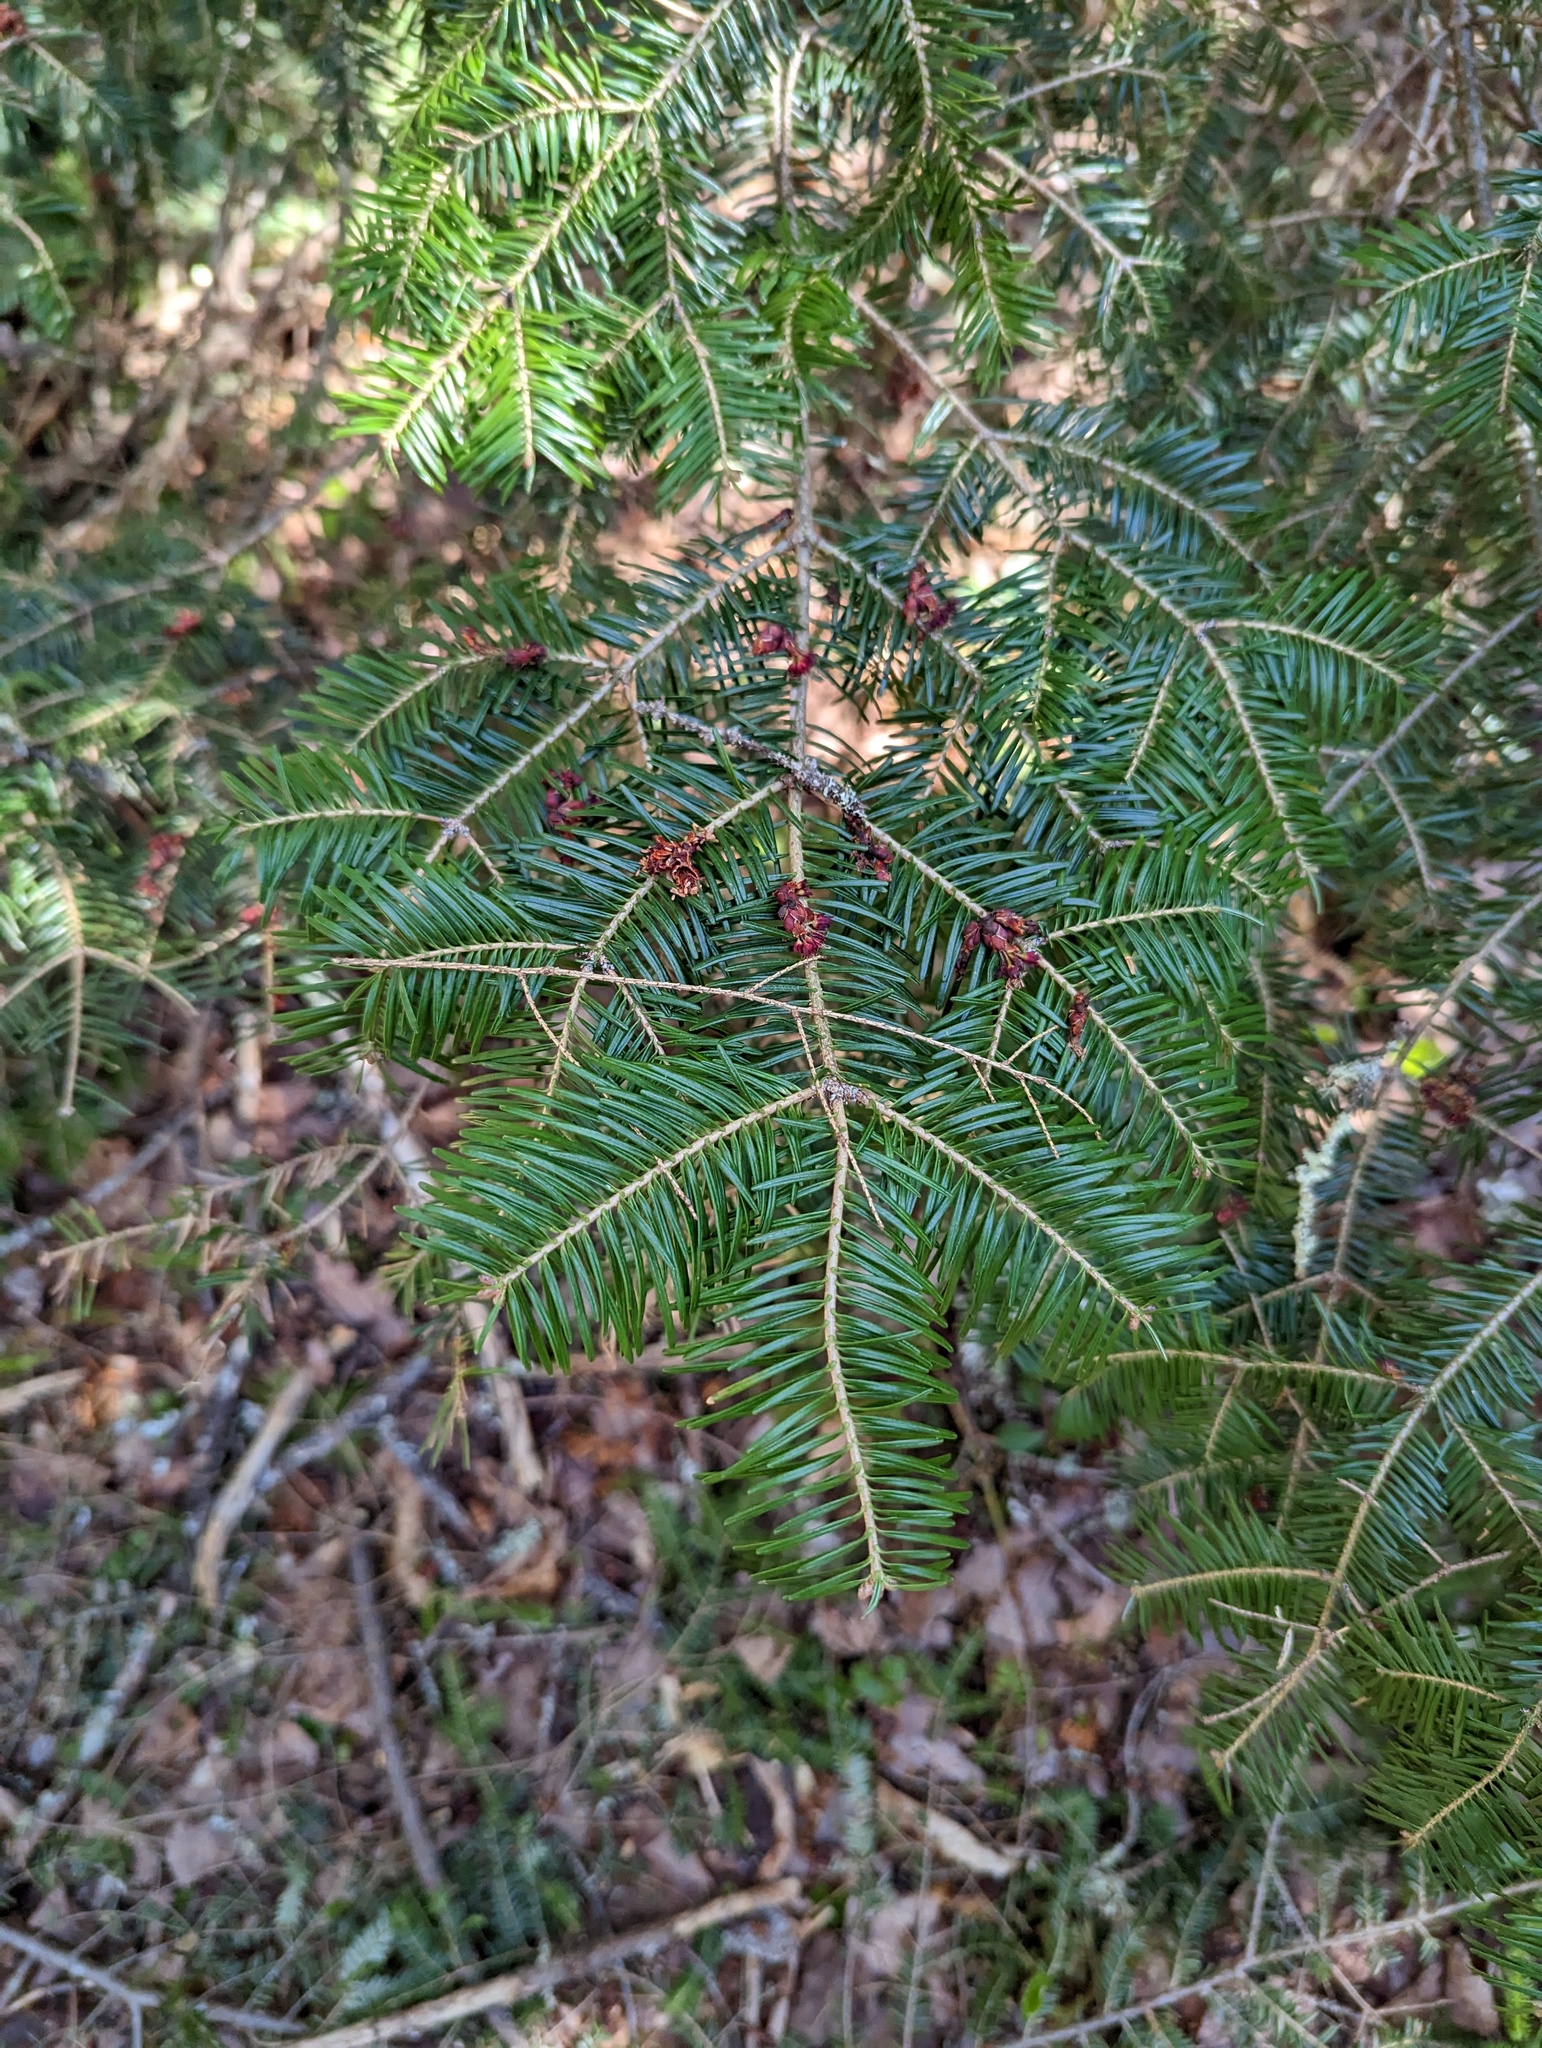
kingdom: Plantae
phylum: Tracheophyta
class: Pinopsida
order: Pinales
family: Pinaceae
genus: Abies
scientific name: Abies balsamea
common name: Balsam fir
